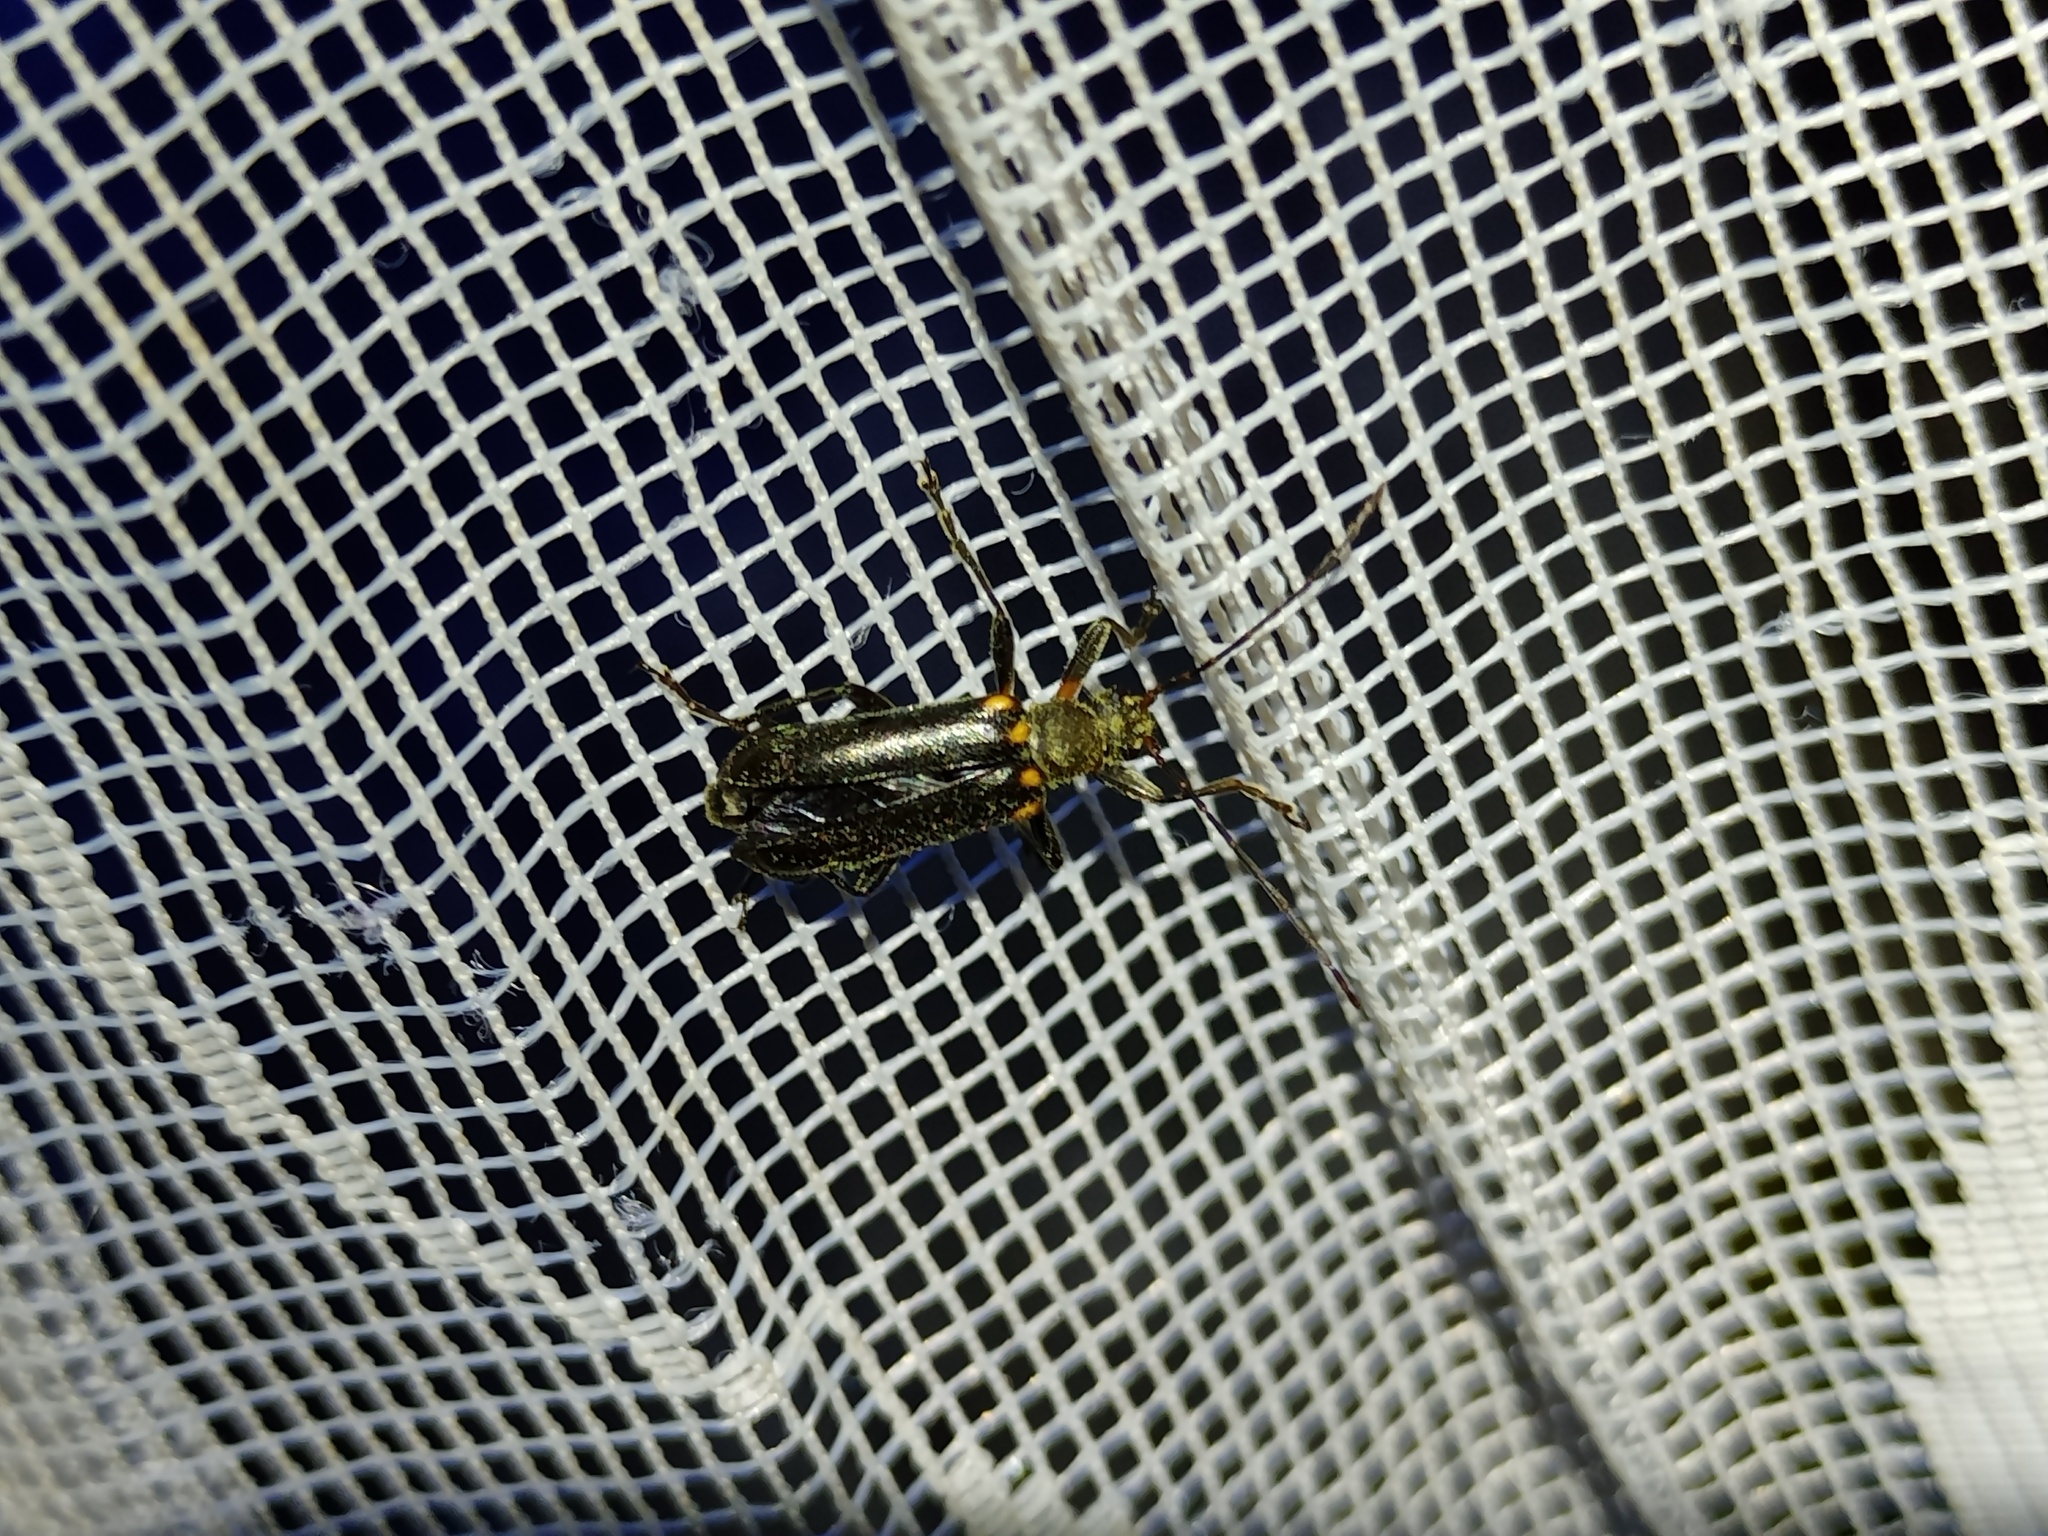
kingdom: Animalia
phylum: Arthropoda
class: Insecta
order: Coleoptera
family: Cerambycidae
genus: Cortodera
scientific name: Cortodera humeralis
